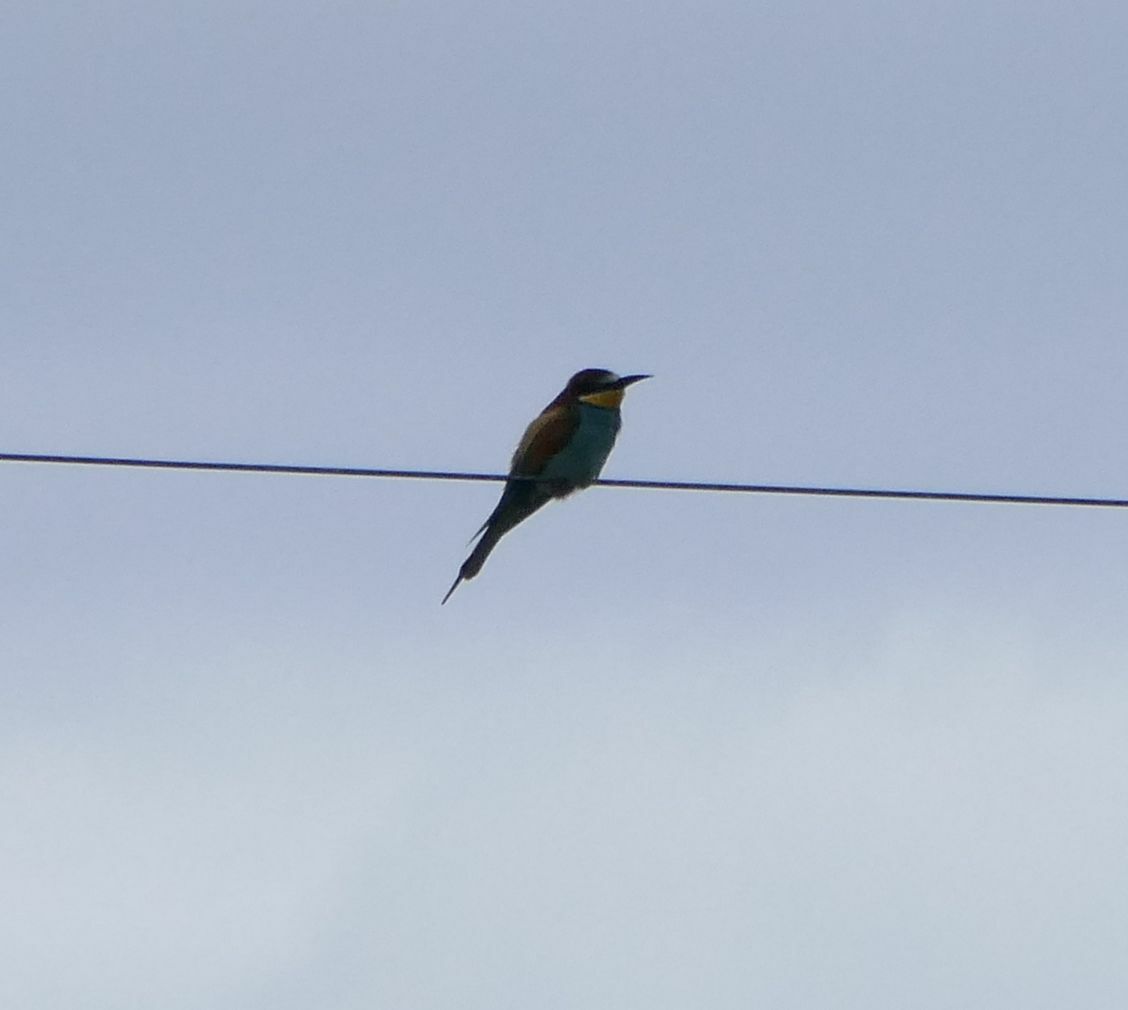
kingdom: Animalia
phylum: Chordata
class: Aves
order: Coraciiformes
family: Meropidae
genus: Merops
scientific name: Merops apiaster
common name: European bee-eater
